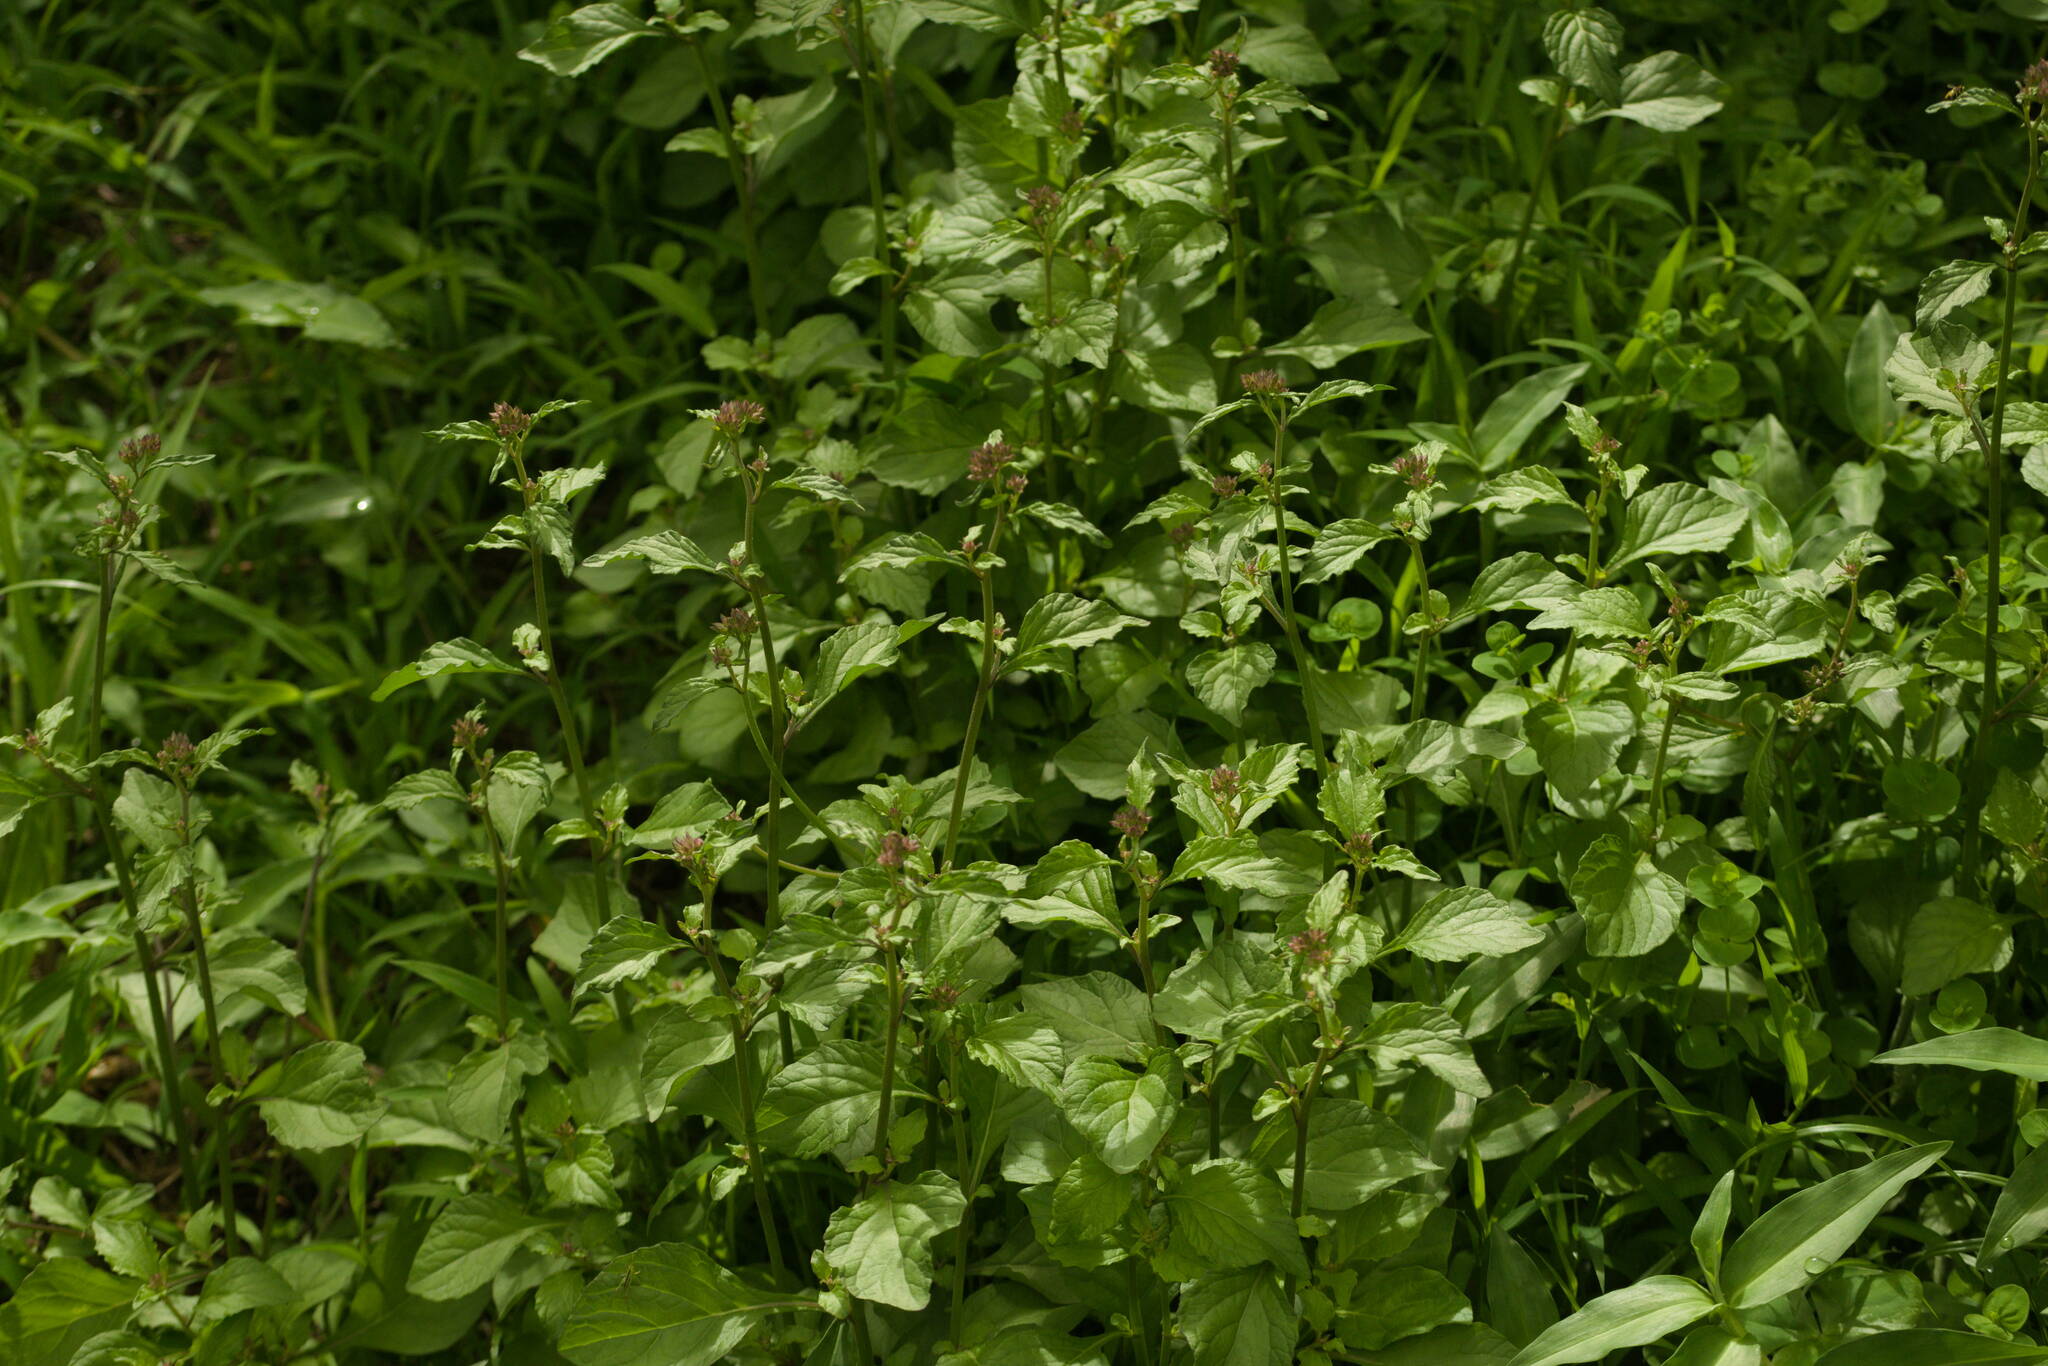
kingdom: Plantae
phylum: Tracheophyta
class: Magnoliopsida
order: Asterales
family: Asteraceae
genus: Cyanthillium
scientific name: Cyanthillium cinereum
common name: Little ironweed
